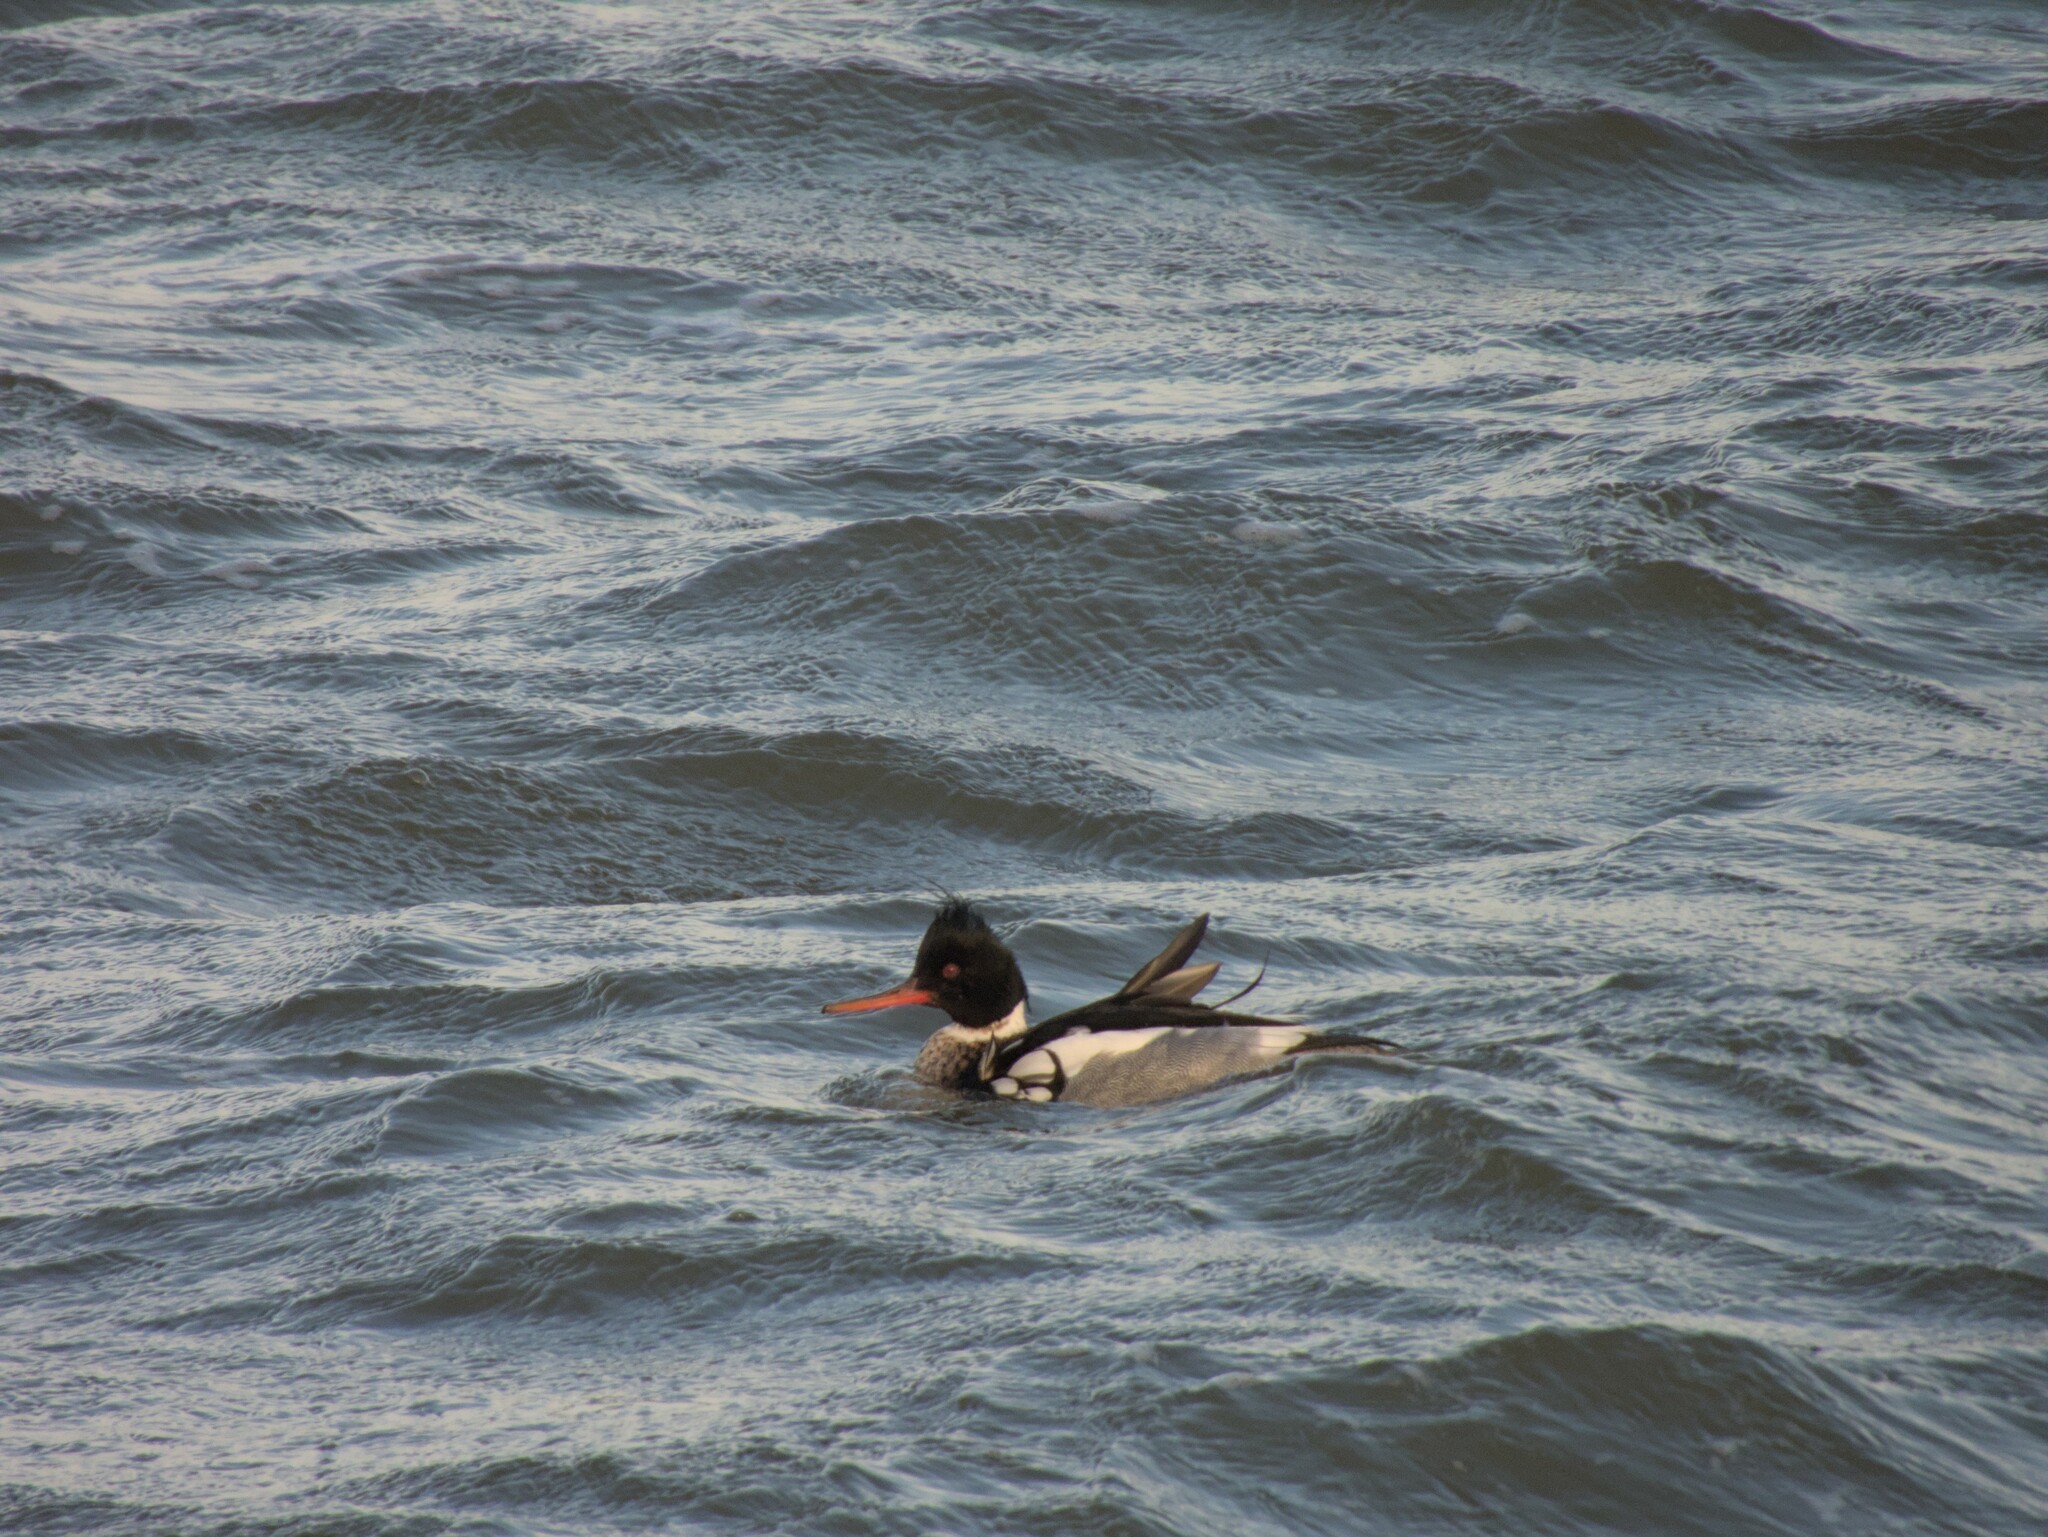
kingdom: Animalia
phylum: Chordata
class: Aves
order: Anseriformes
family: Anatidae
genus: Mergus
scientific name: Mergus serrator
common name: Red-breasted merganser
